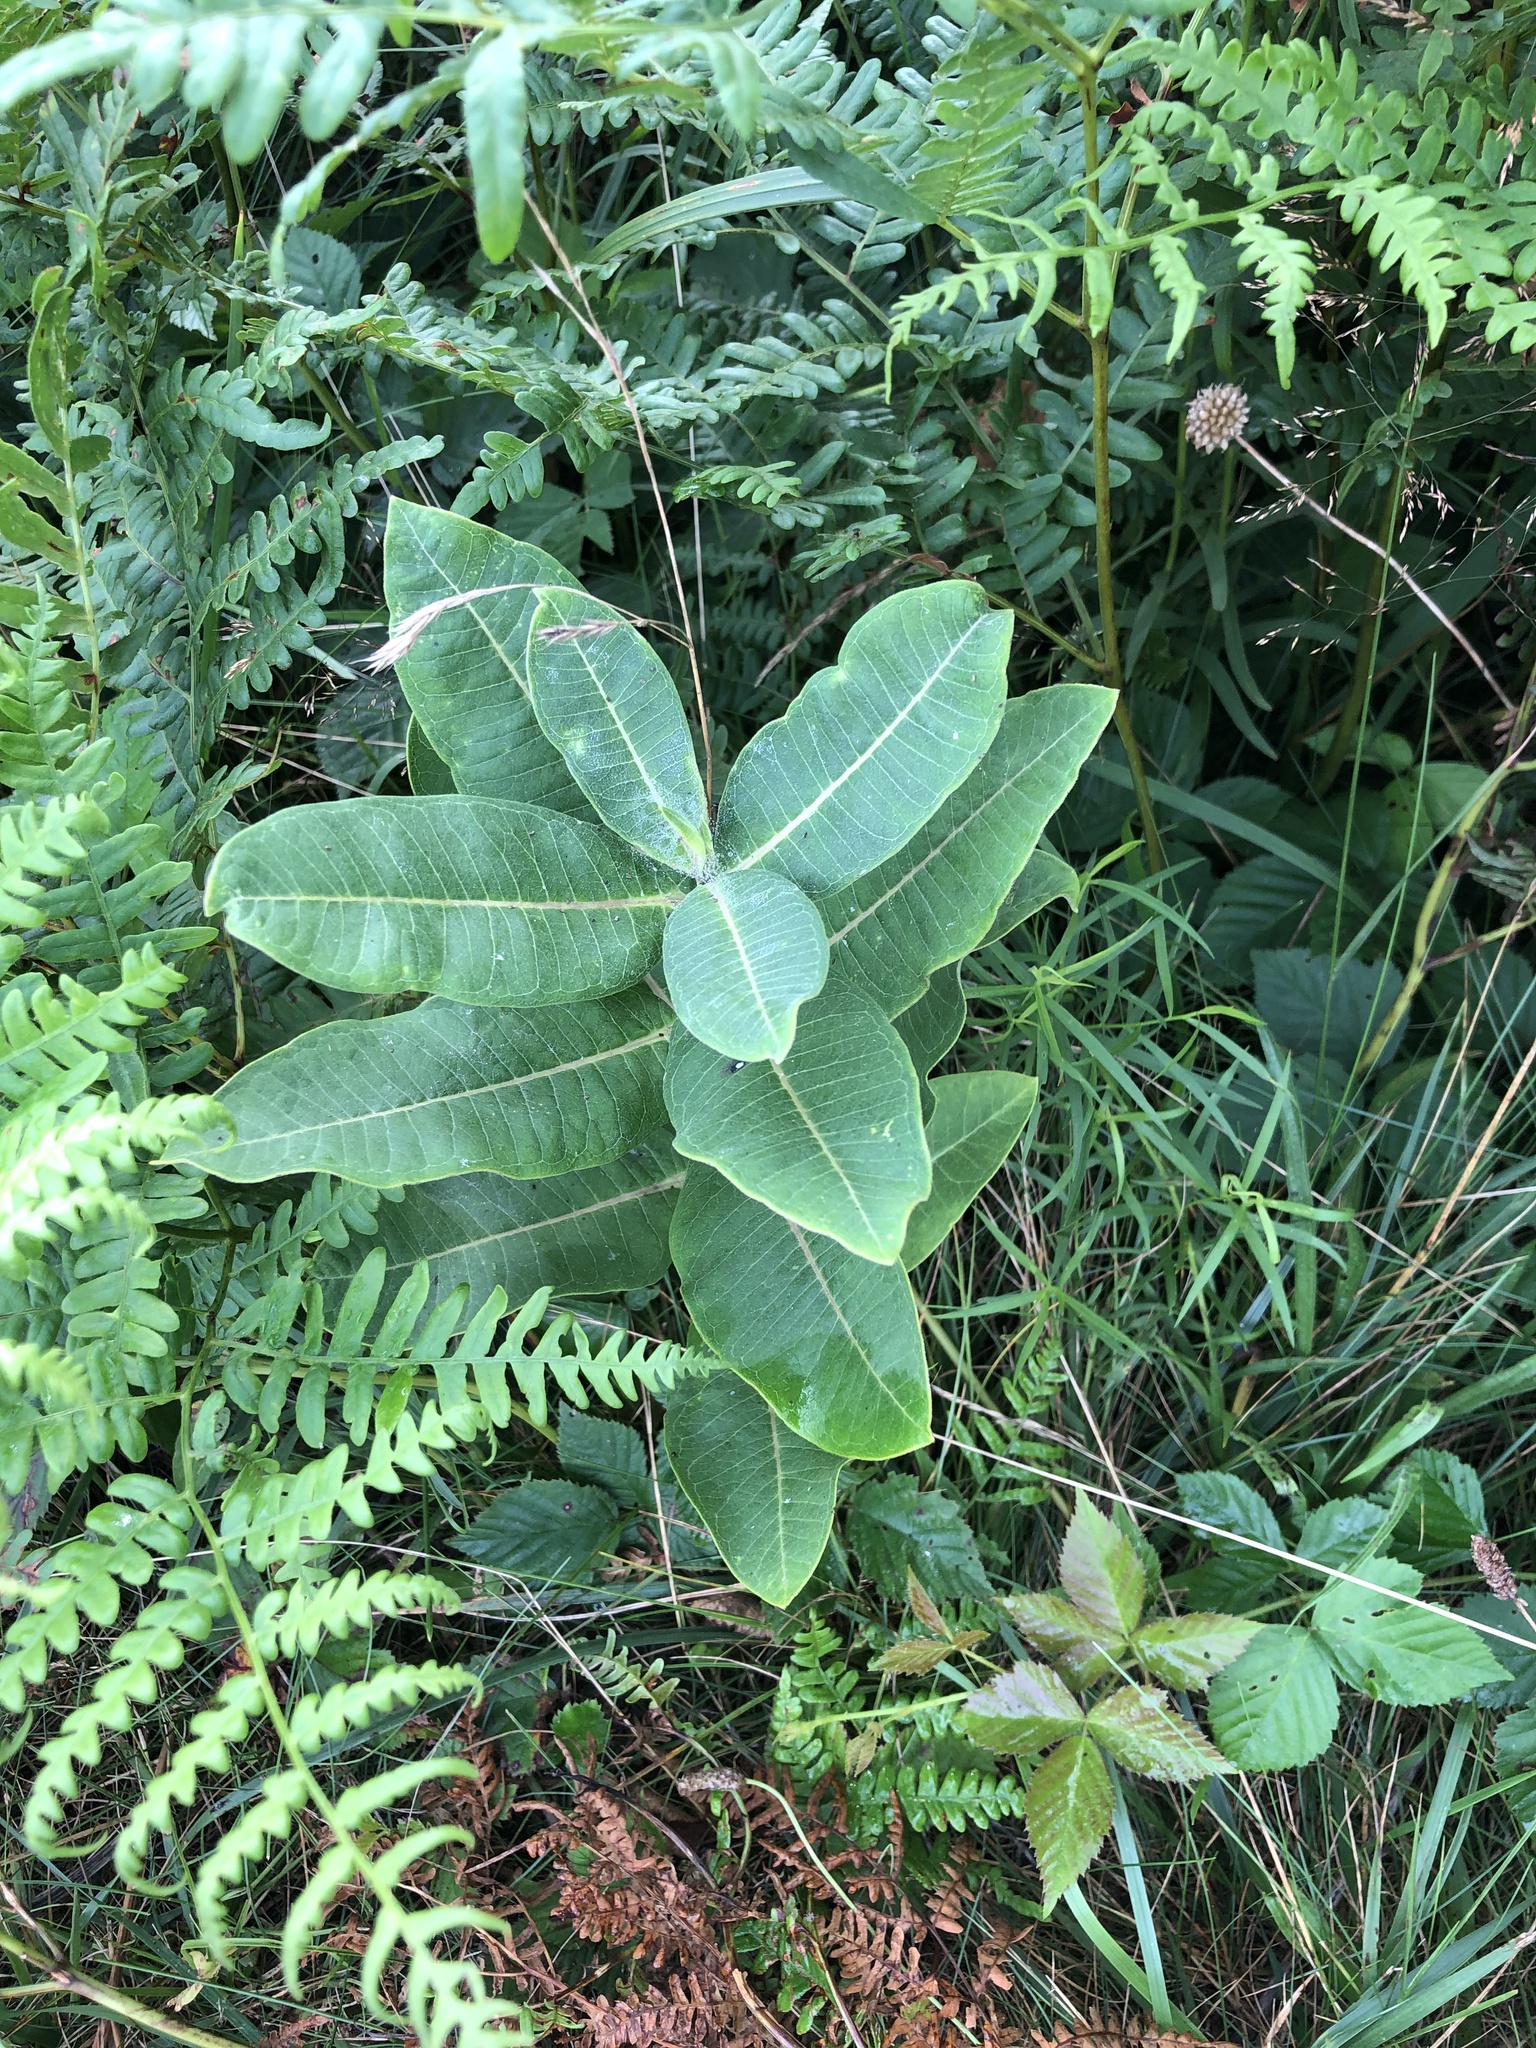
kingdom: Plantae
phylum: Tracheophyta
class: Magnoliopsida
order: Gentianales
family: Apocynaceae
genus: Asclepias
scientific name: Asclepias syriaca
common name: Common milkweed
